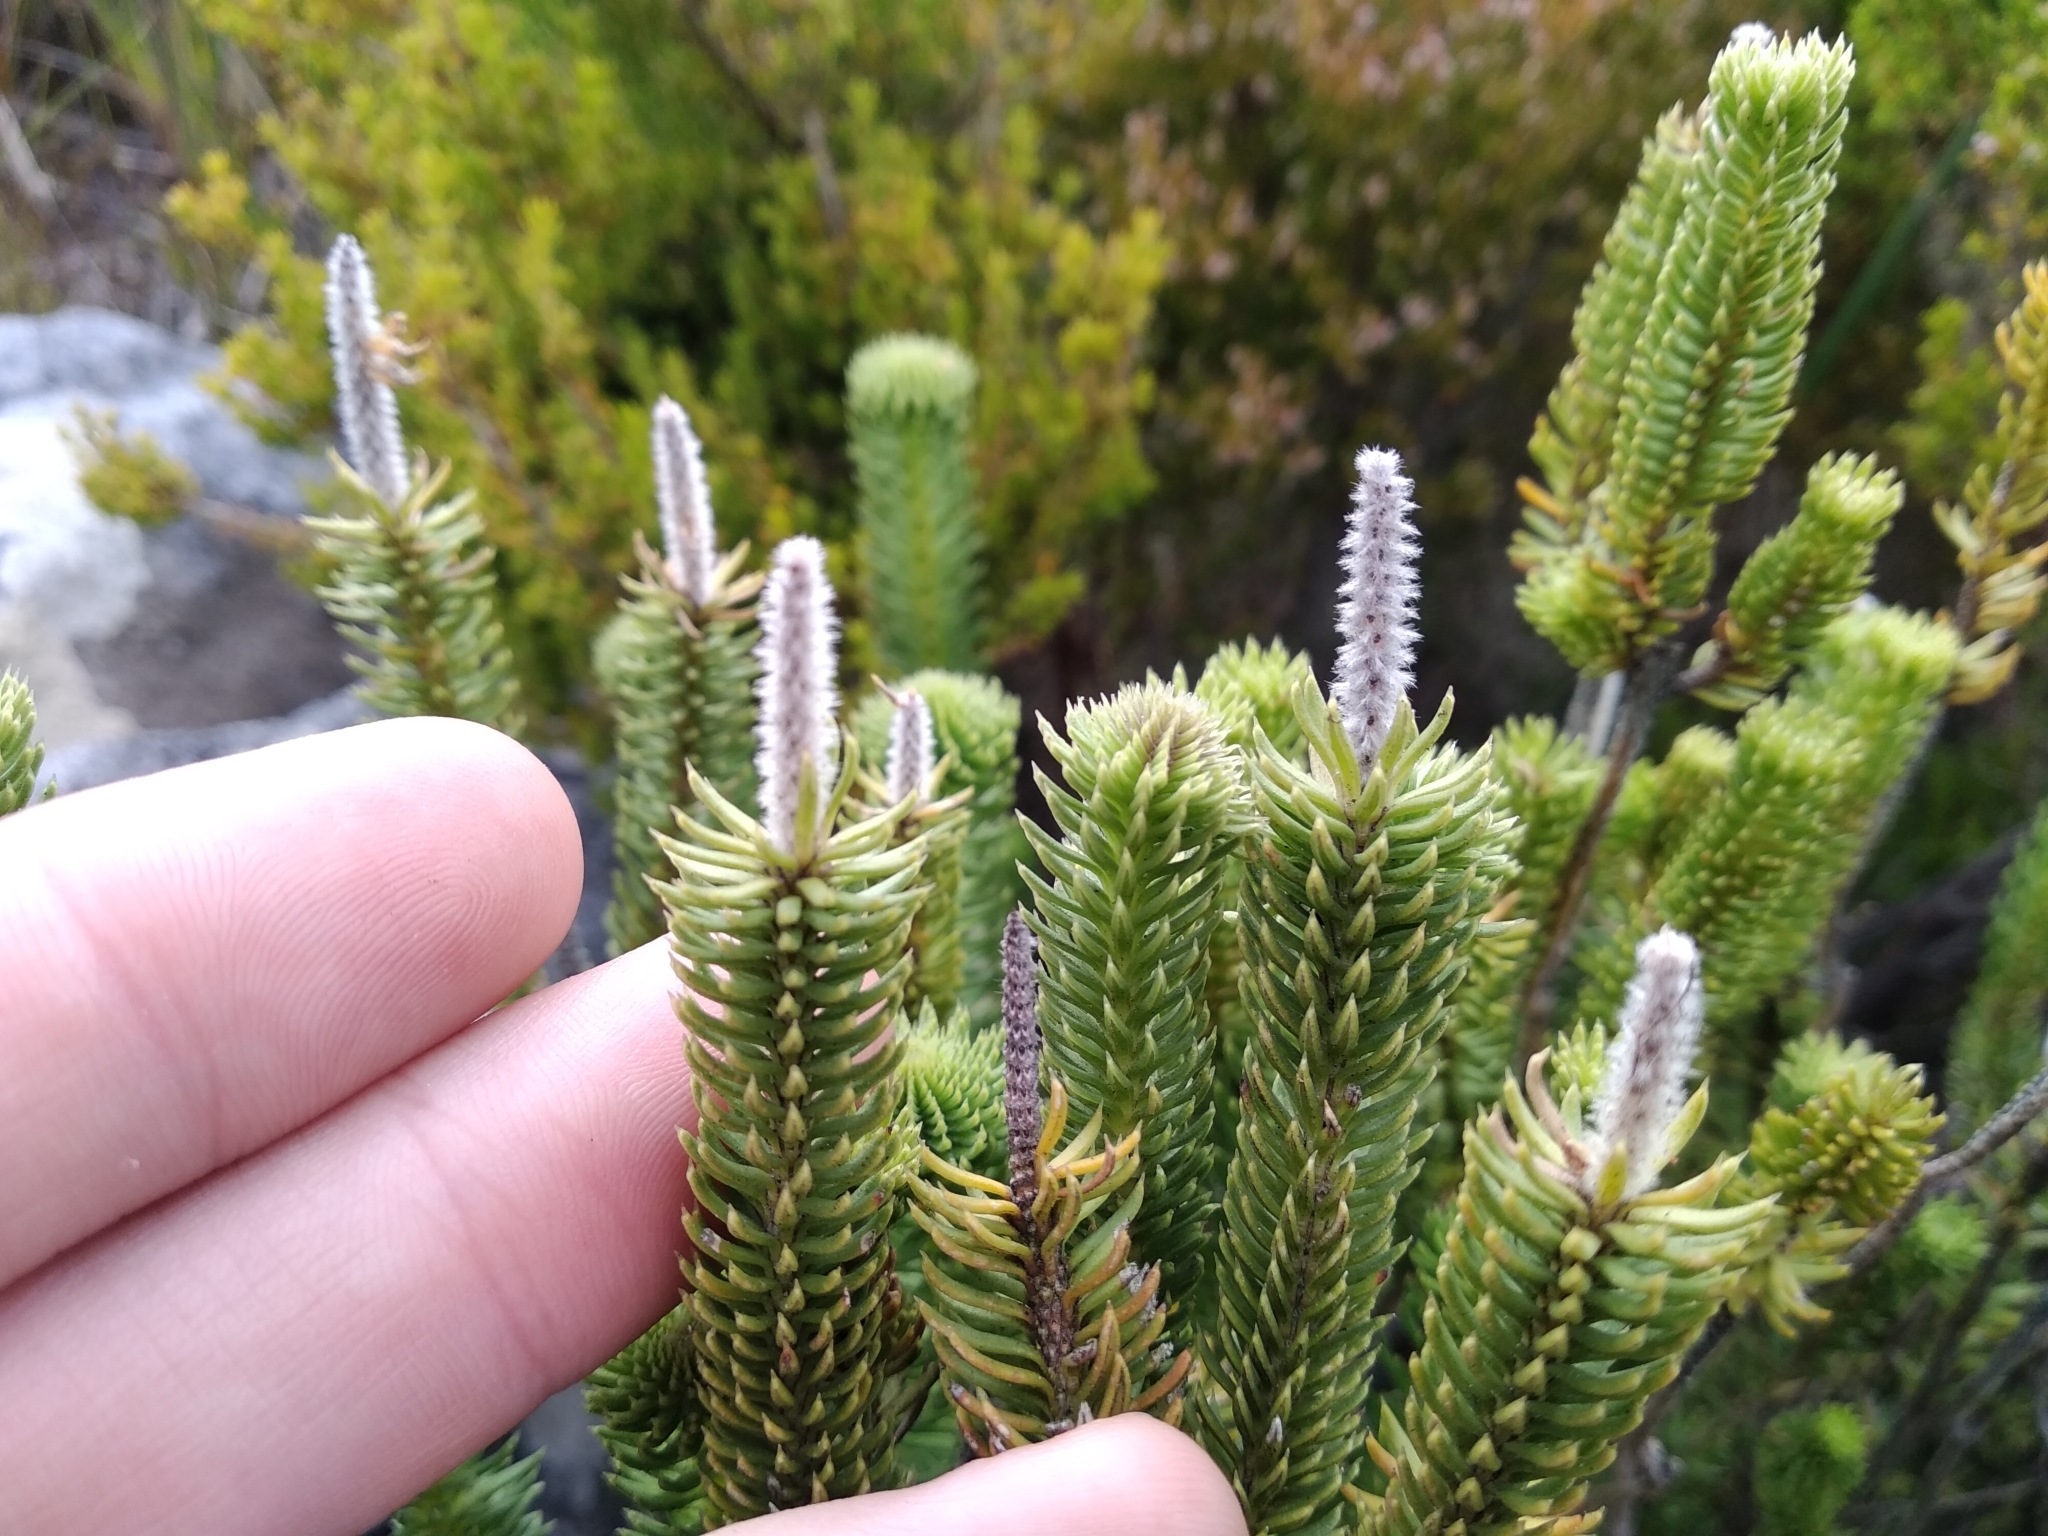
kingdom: Plantae
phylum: Tracheophyta
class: Magnoliopsida
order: Lamiales
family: Stilbaceae
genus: Stilbe
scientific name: Stilbe vestita
